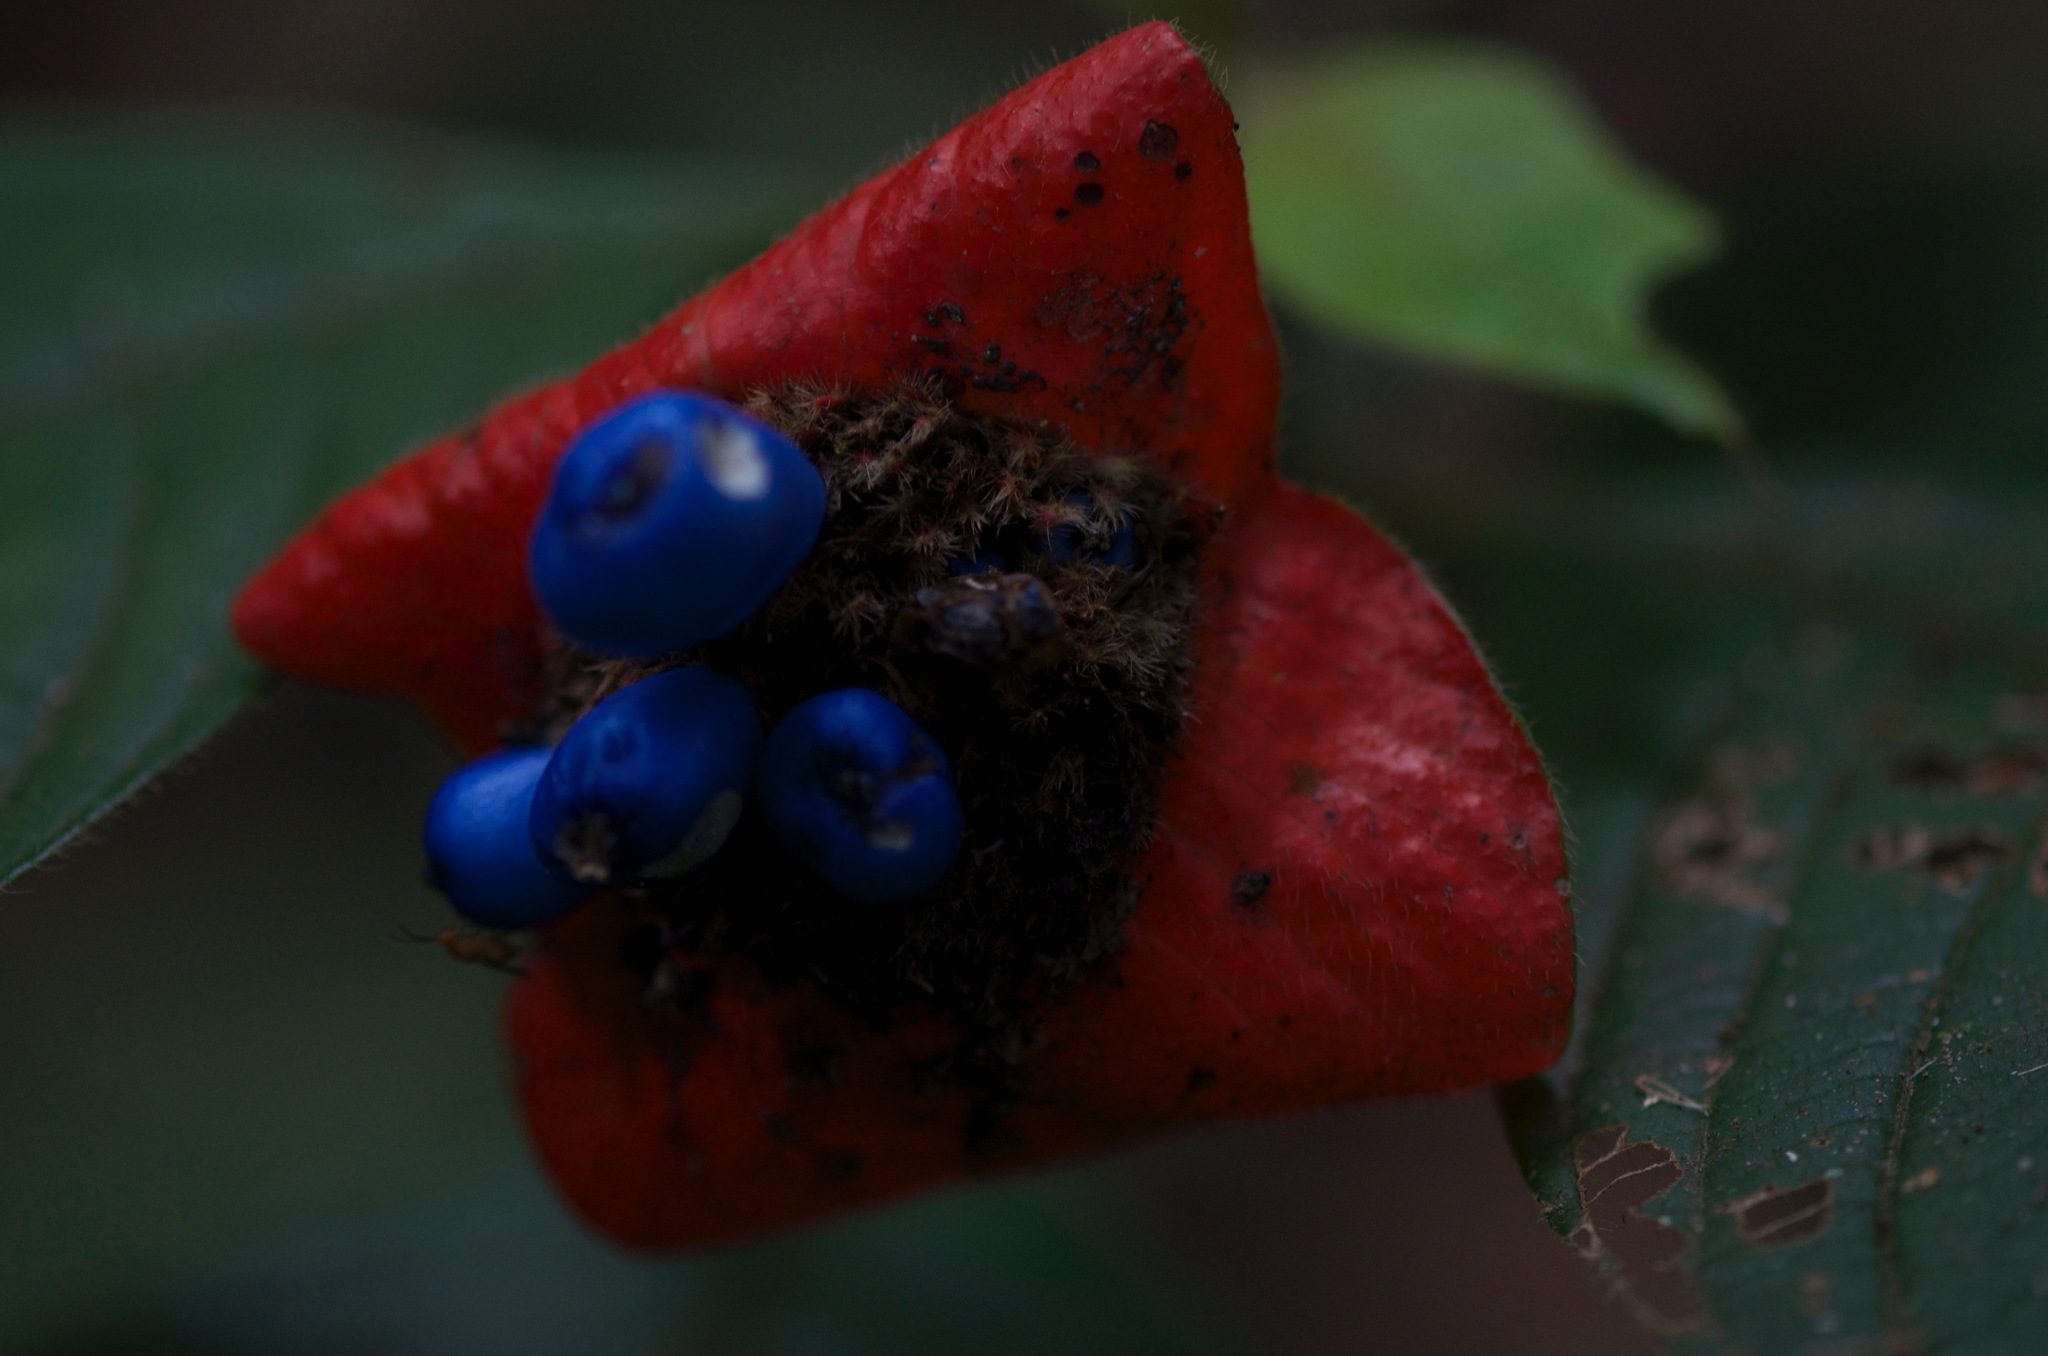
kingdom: Plantae
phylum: Tracheophyta
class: Magnoliopsida
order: Gentianales
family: Rubiaceae
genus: Palicourea
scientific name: Palicourea tomentosa
